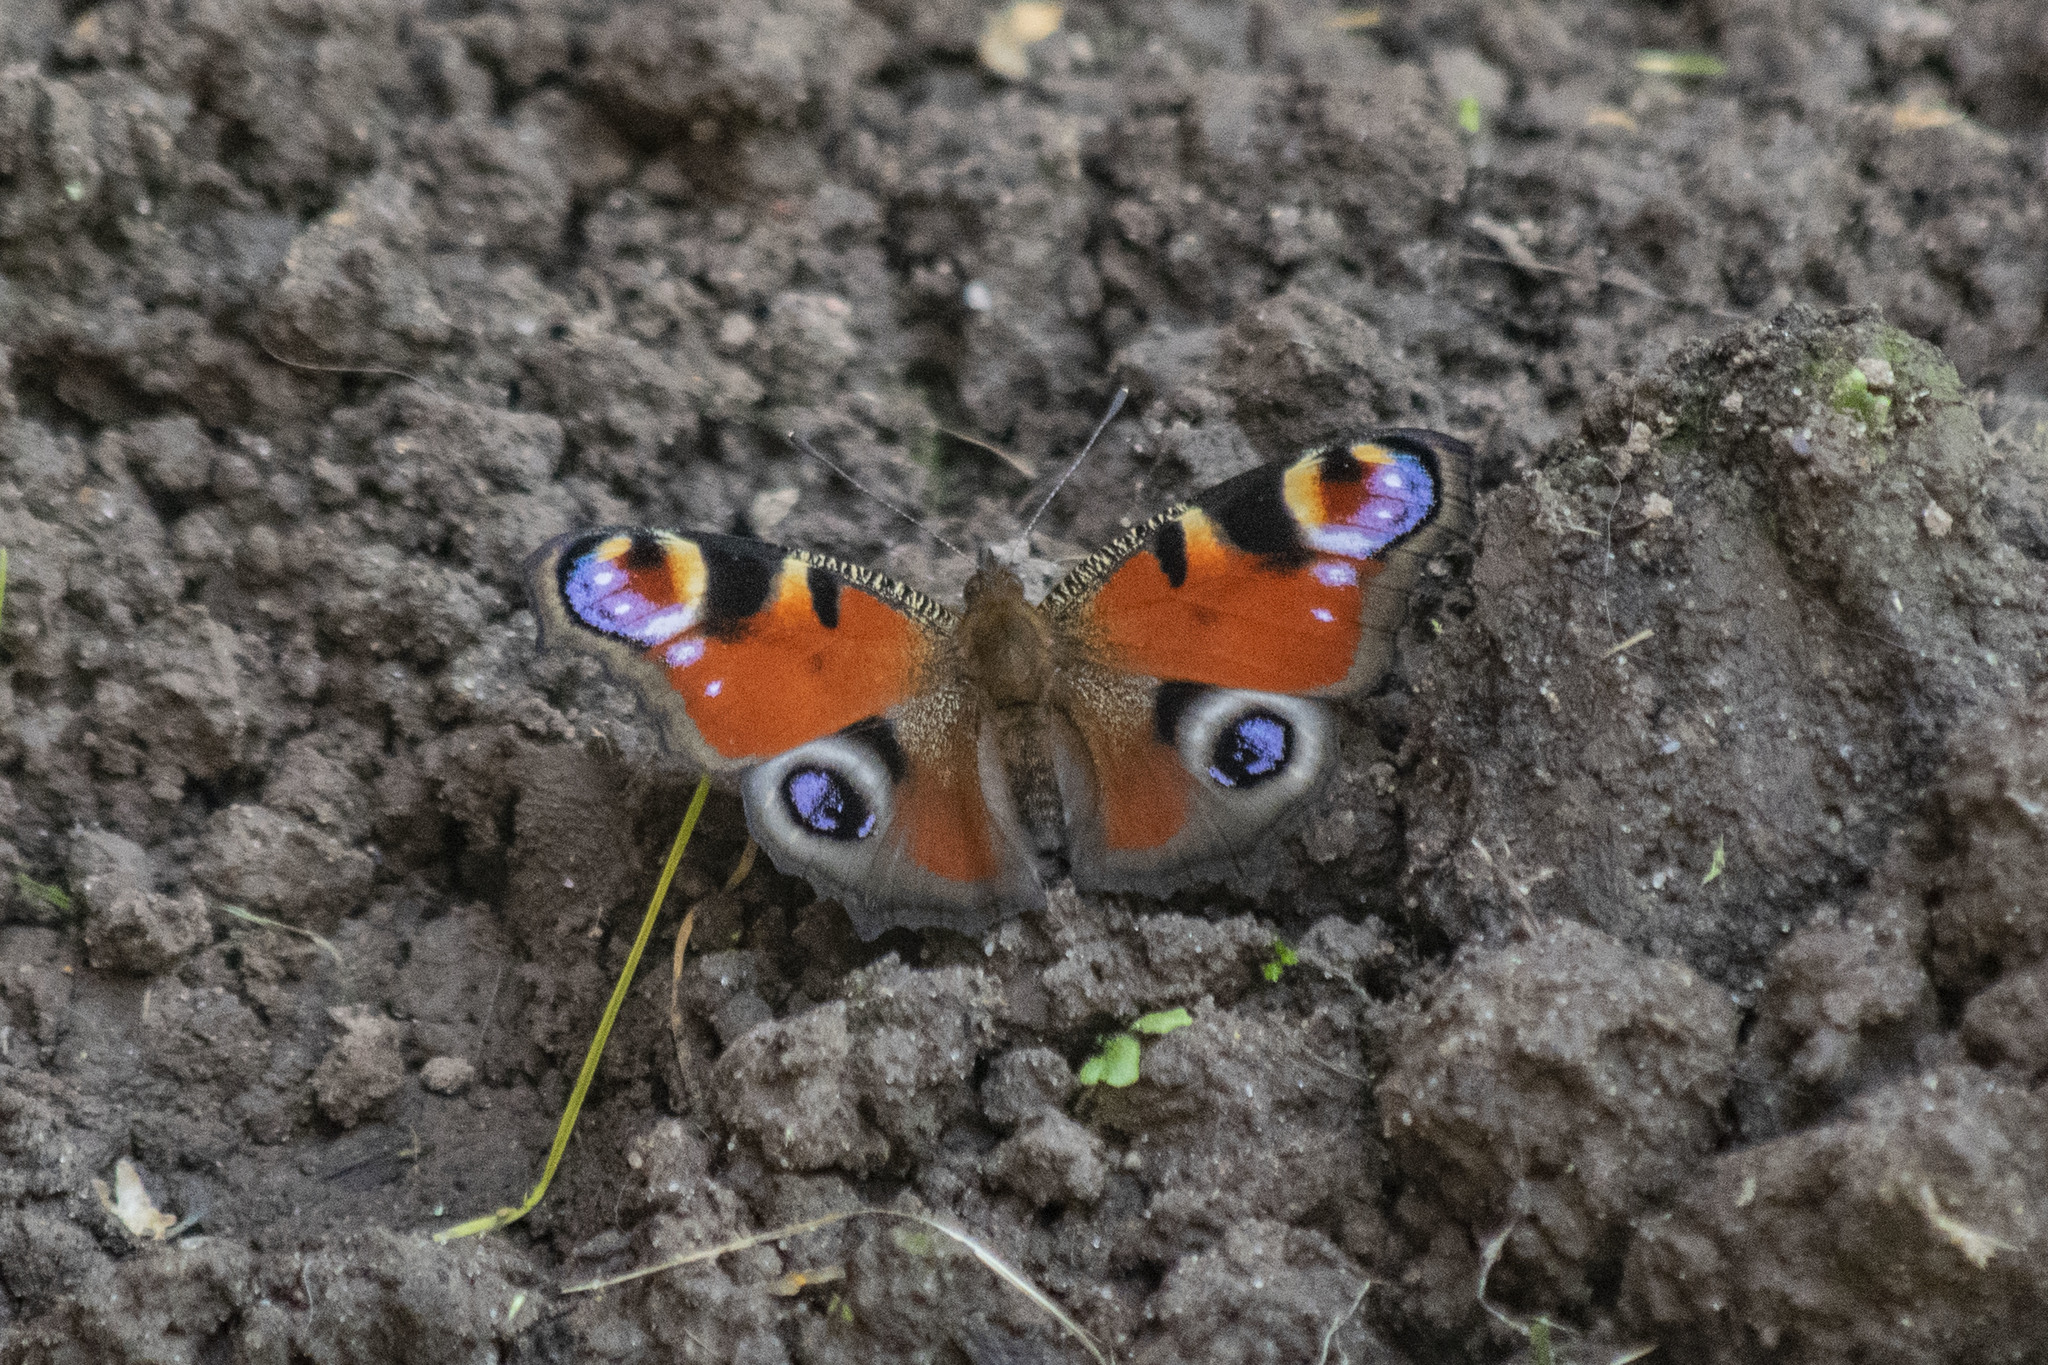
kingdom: Animalia
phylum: Arthropoda
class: Insecta
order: Lepidoptera
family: Nymphalidae
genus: Aglais
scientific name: Aglais io
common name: Peacock
